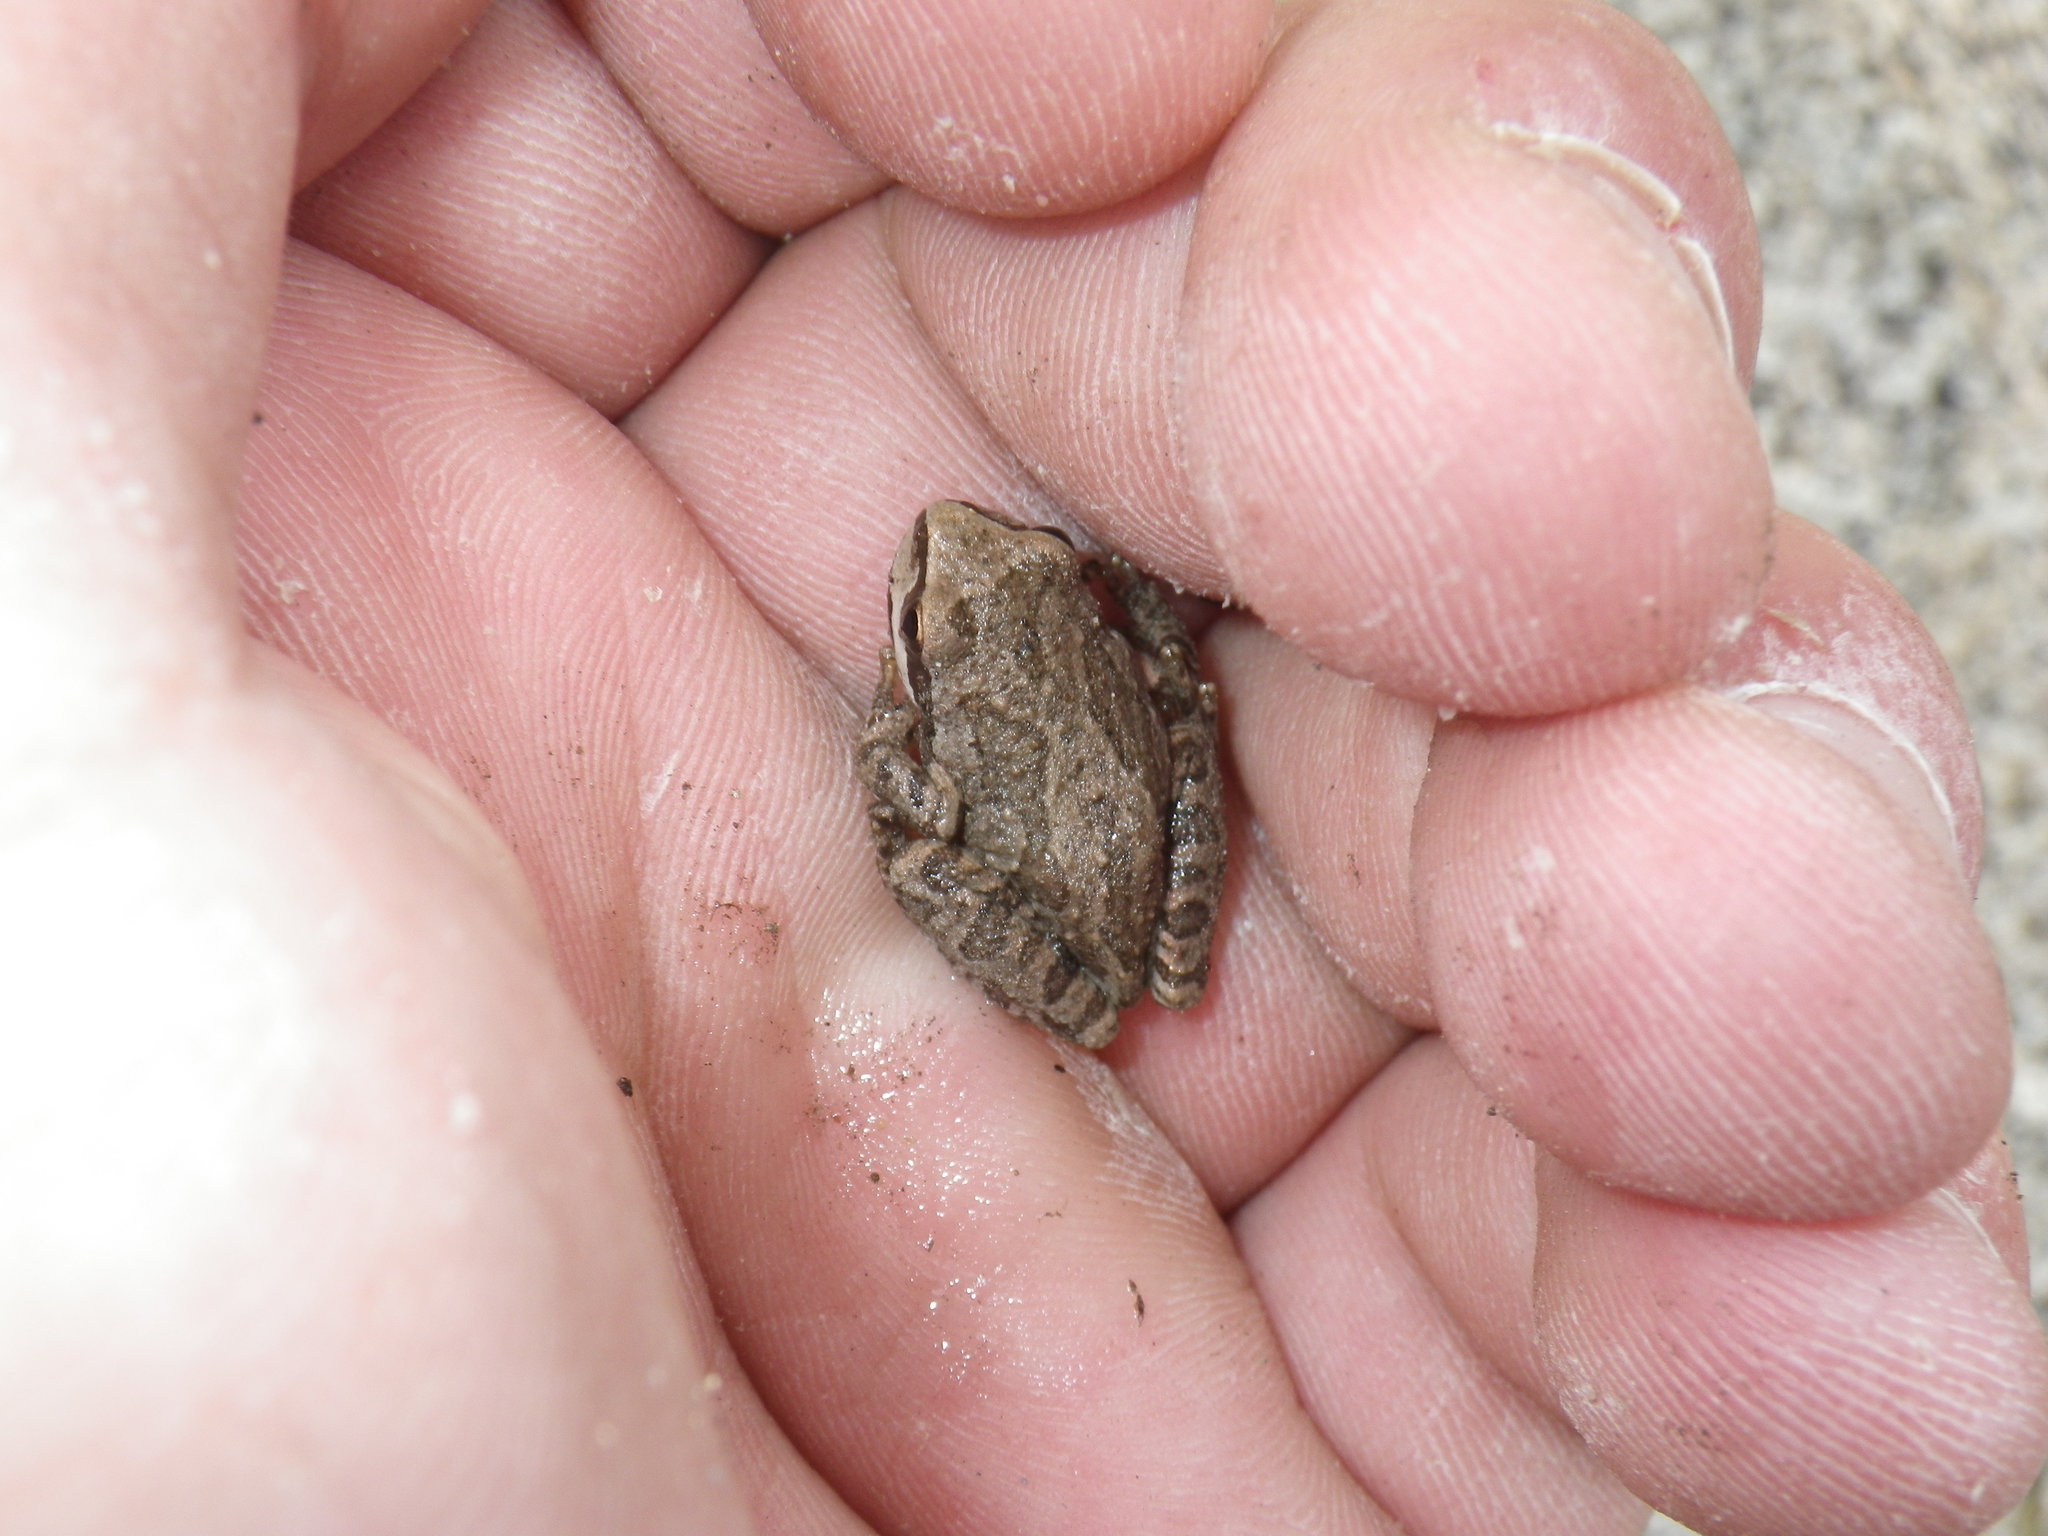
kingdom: Animalia
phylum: Chordata
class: Amphibia
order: Anura
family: Hylidae
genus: Pseudacris
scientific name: Pseudacris regilla
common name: Pacific chorus frog
